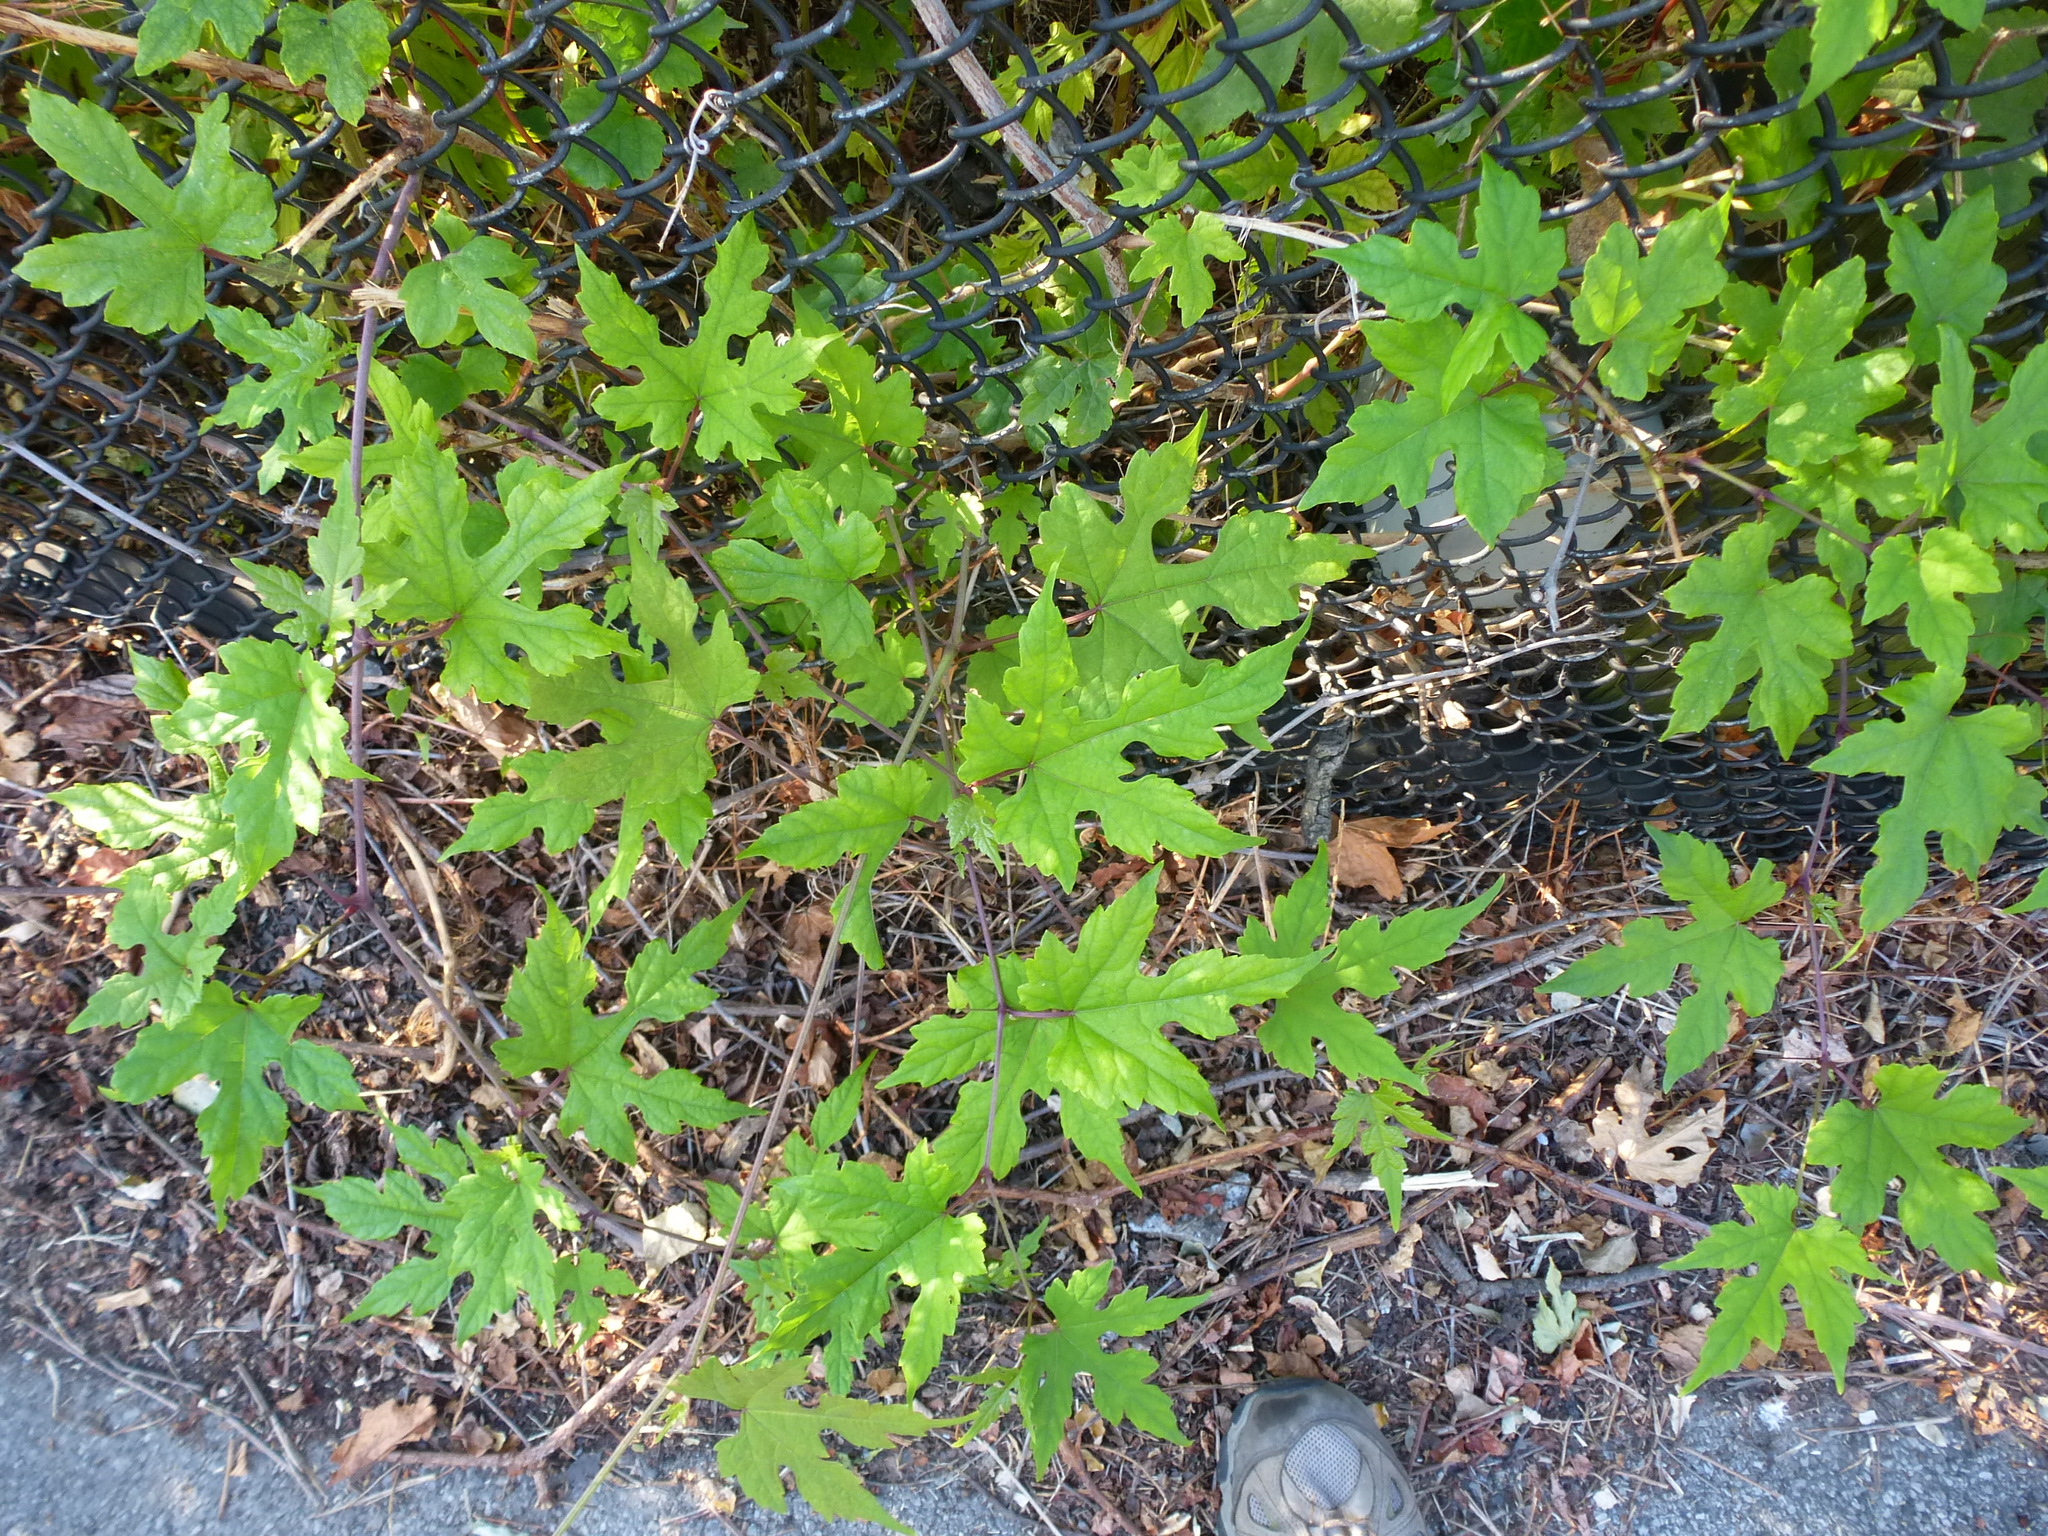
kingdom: Plantae
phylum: Tracheophyta
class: Magnoliopsida
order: Vitales
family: Vitaceae
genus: Ampelopsis
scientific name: Ampelopsis glandulosa
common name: Amur peppervine
